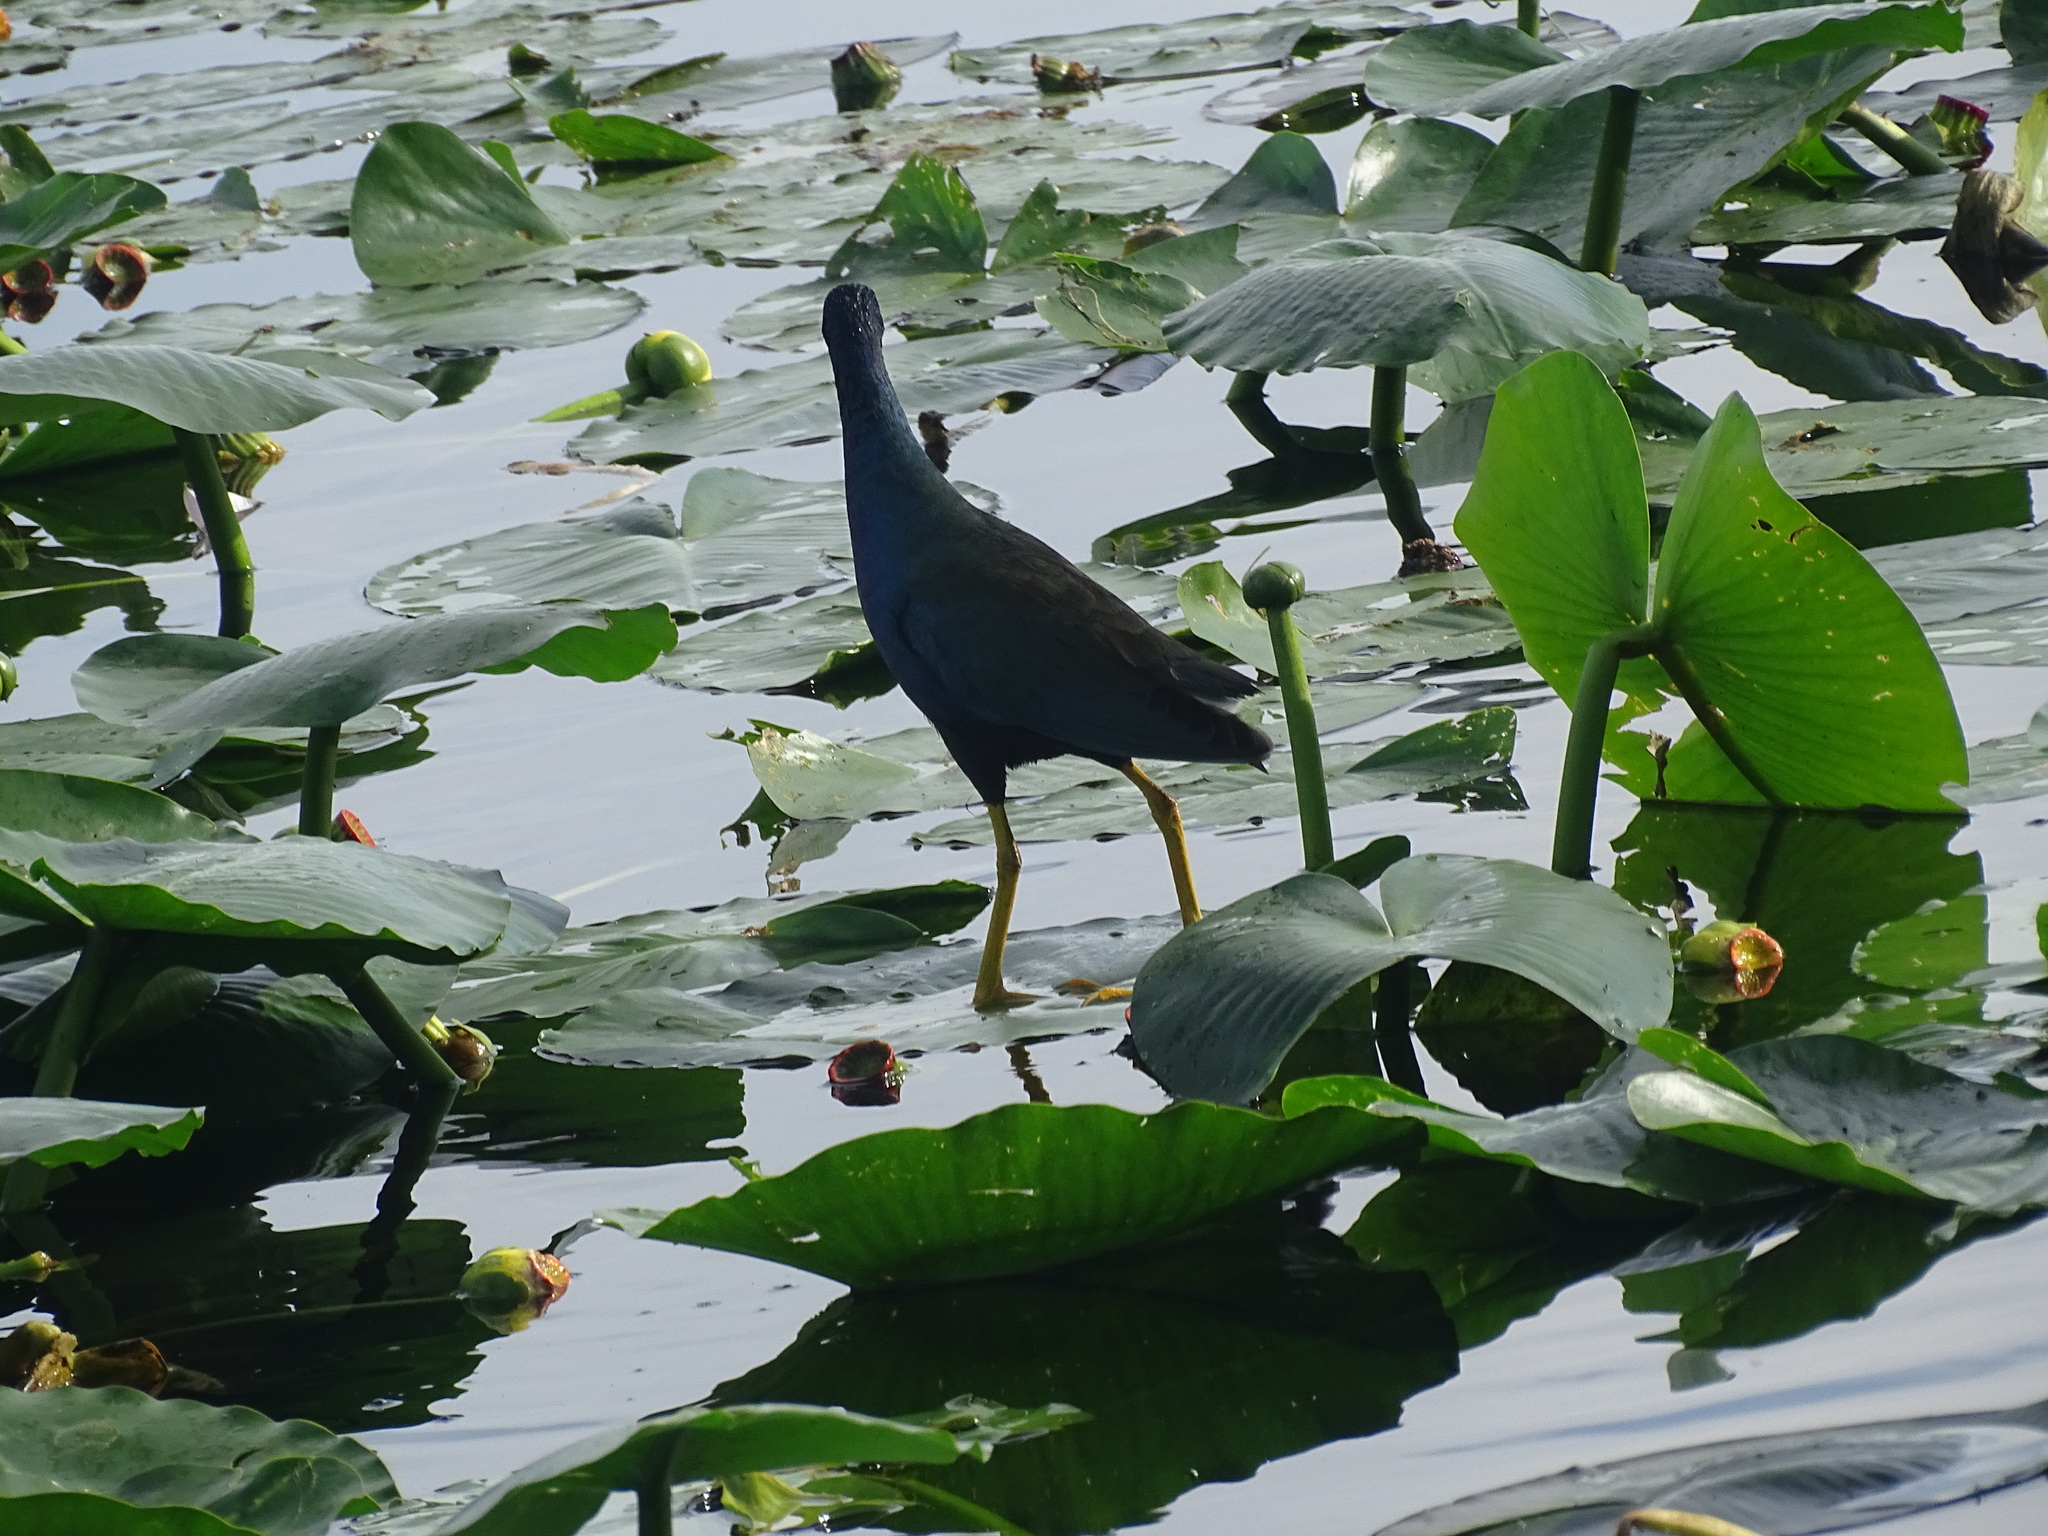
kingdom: Animalia
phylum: Chordata
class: Aves
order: Gruiformes
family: Rallidae
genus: Porphyrio
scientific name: Porphyrio martinica
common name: Purple gallinule
